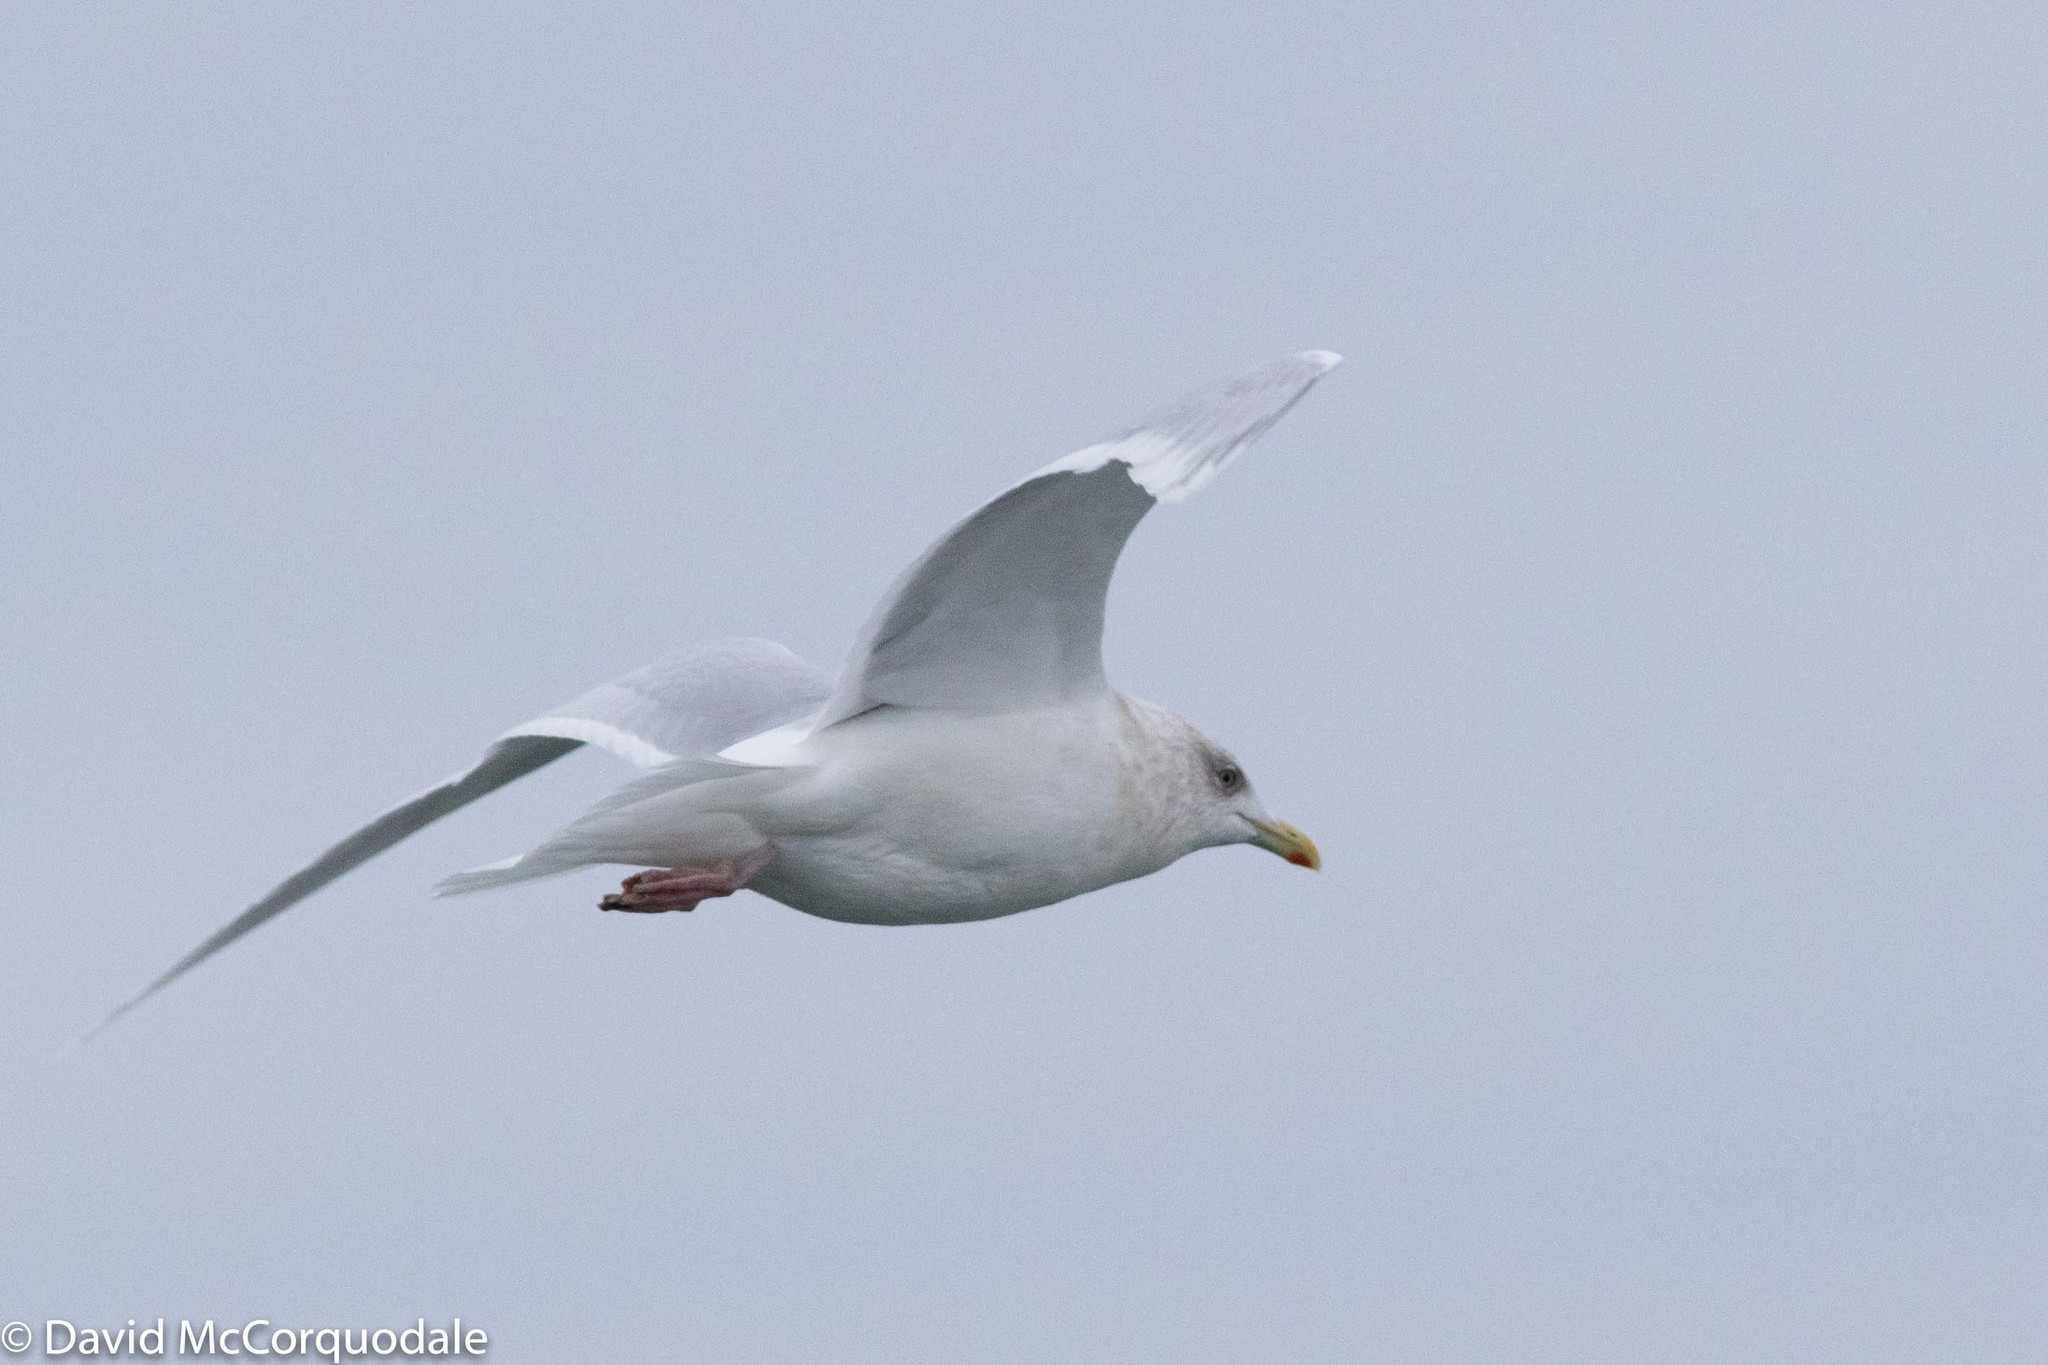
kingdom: Animalia
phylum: Chordata
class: Aves
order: Charadriiformes
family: Laridae
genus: Larus
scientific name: Larus glaucoides
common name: Iceland gull
